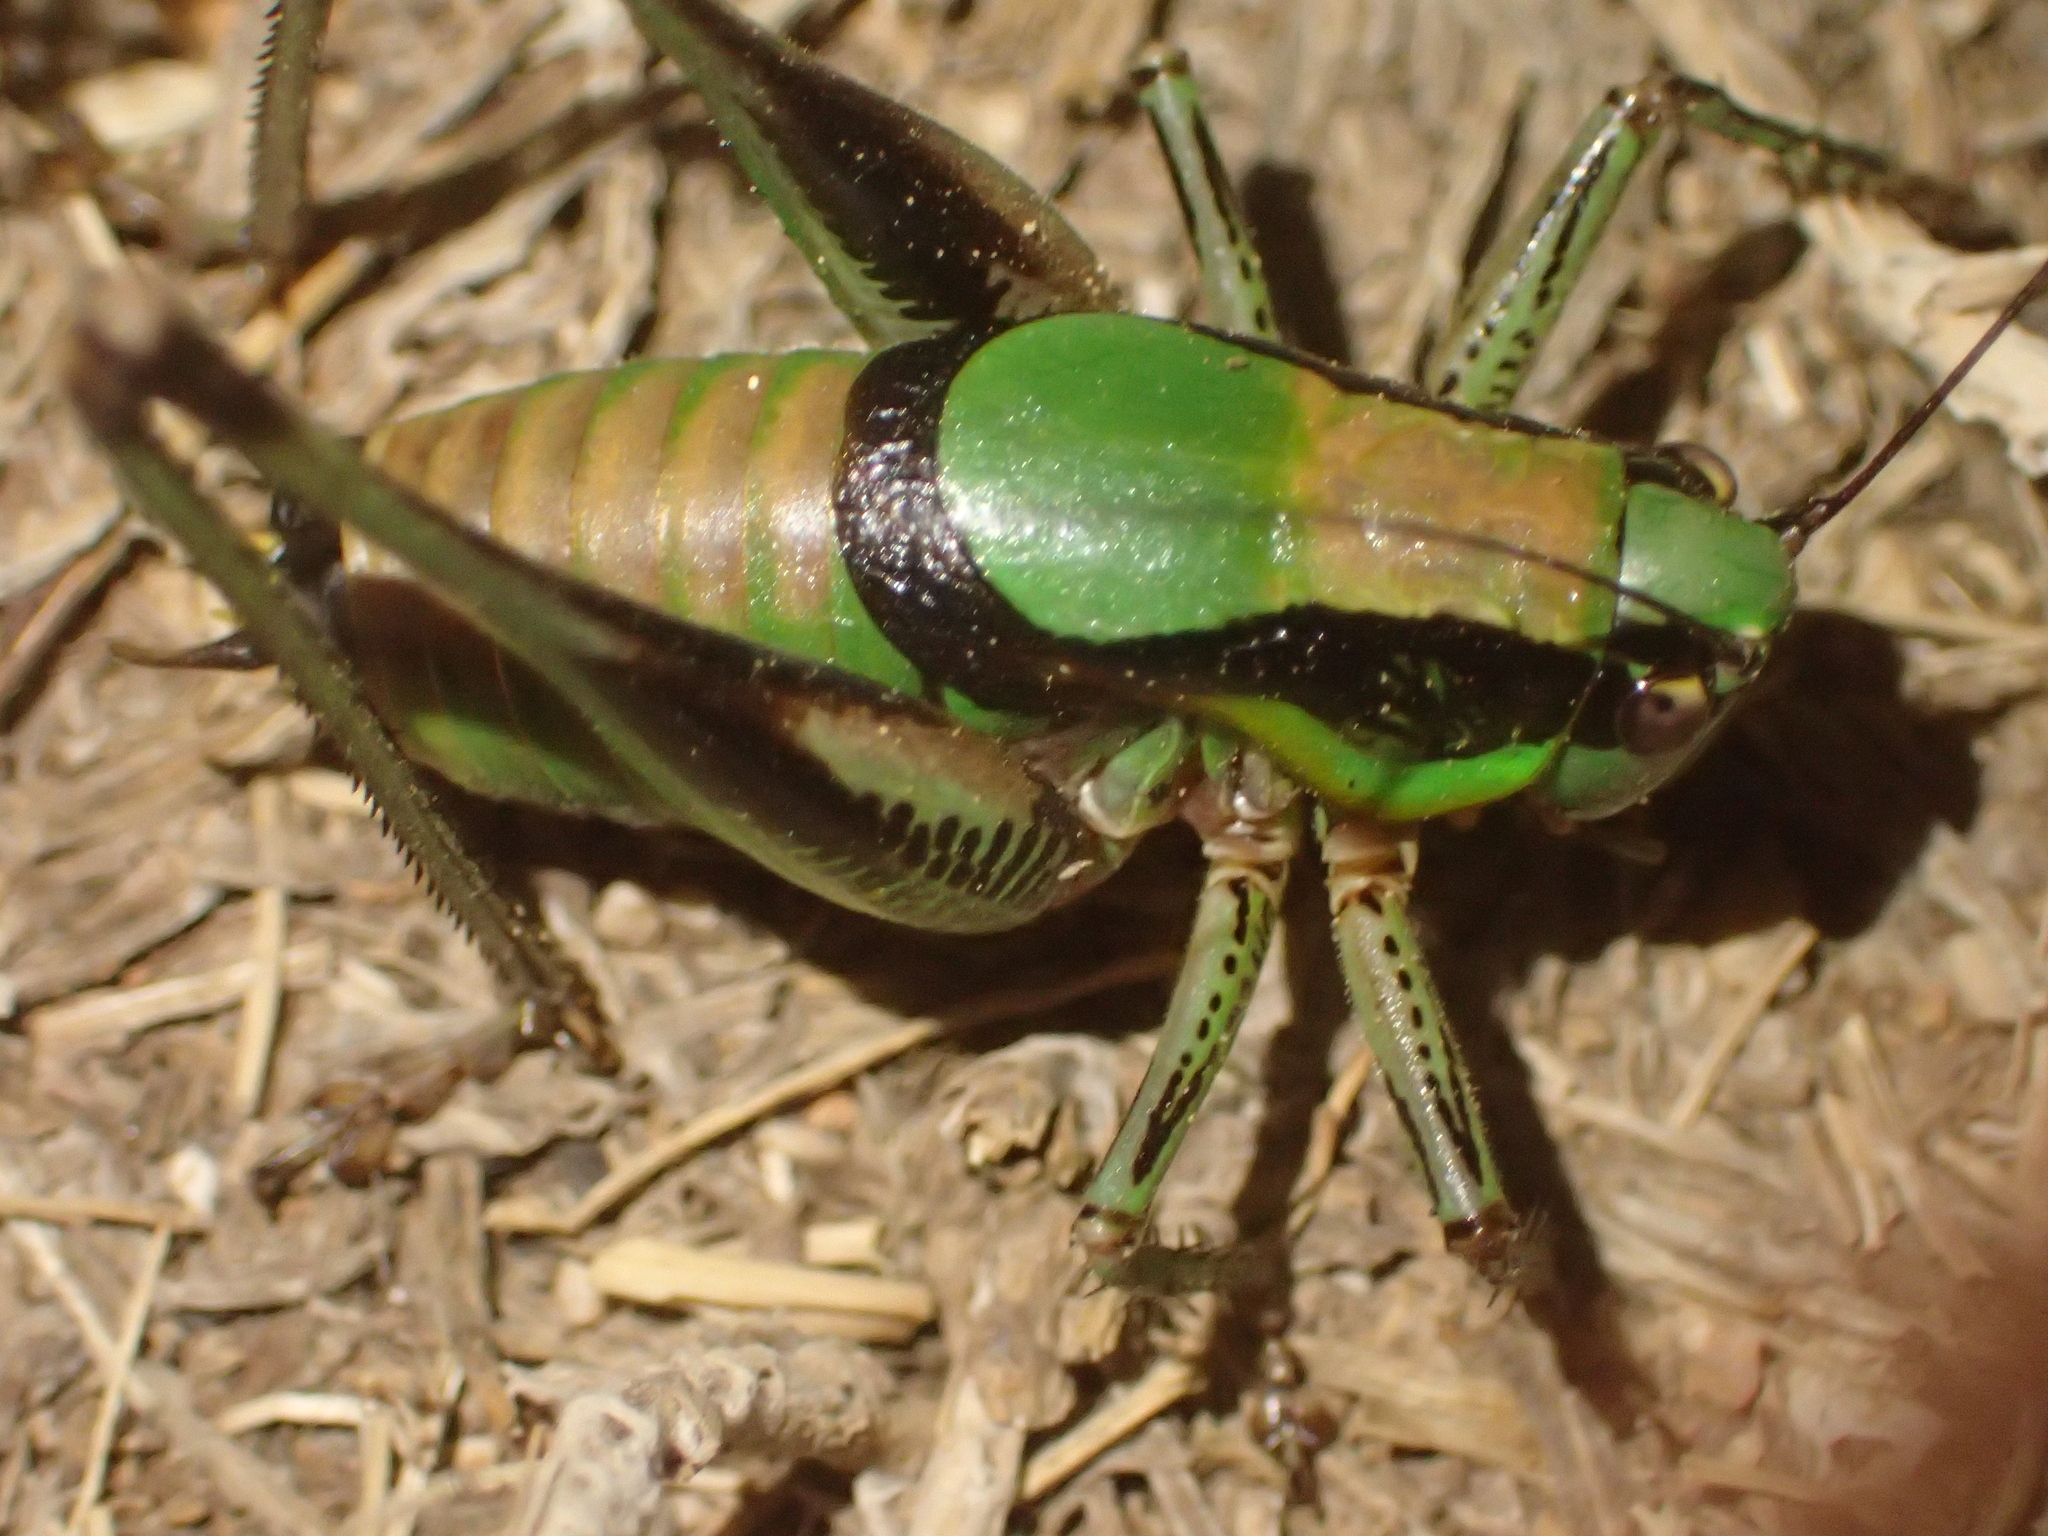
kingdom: Animalia
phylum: Arthropoda
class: Insecta
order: Orthoptera
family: Tettigoniidae
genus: Eupholidoptera
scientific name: Eupholidoptera schmidti
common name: Schmidt's marbled bush-cricket
